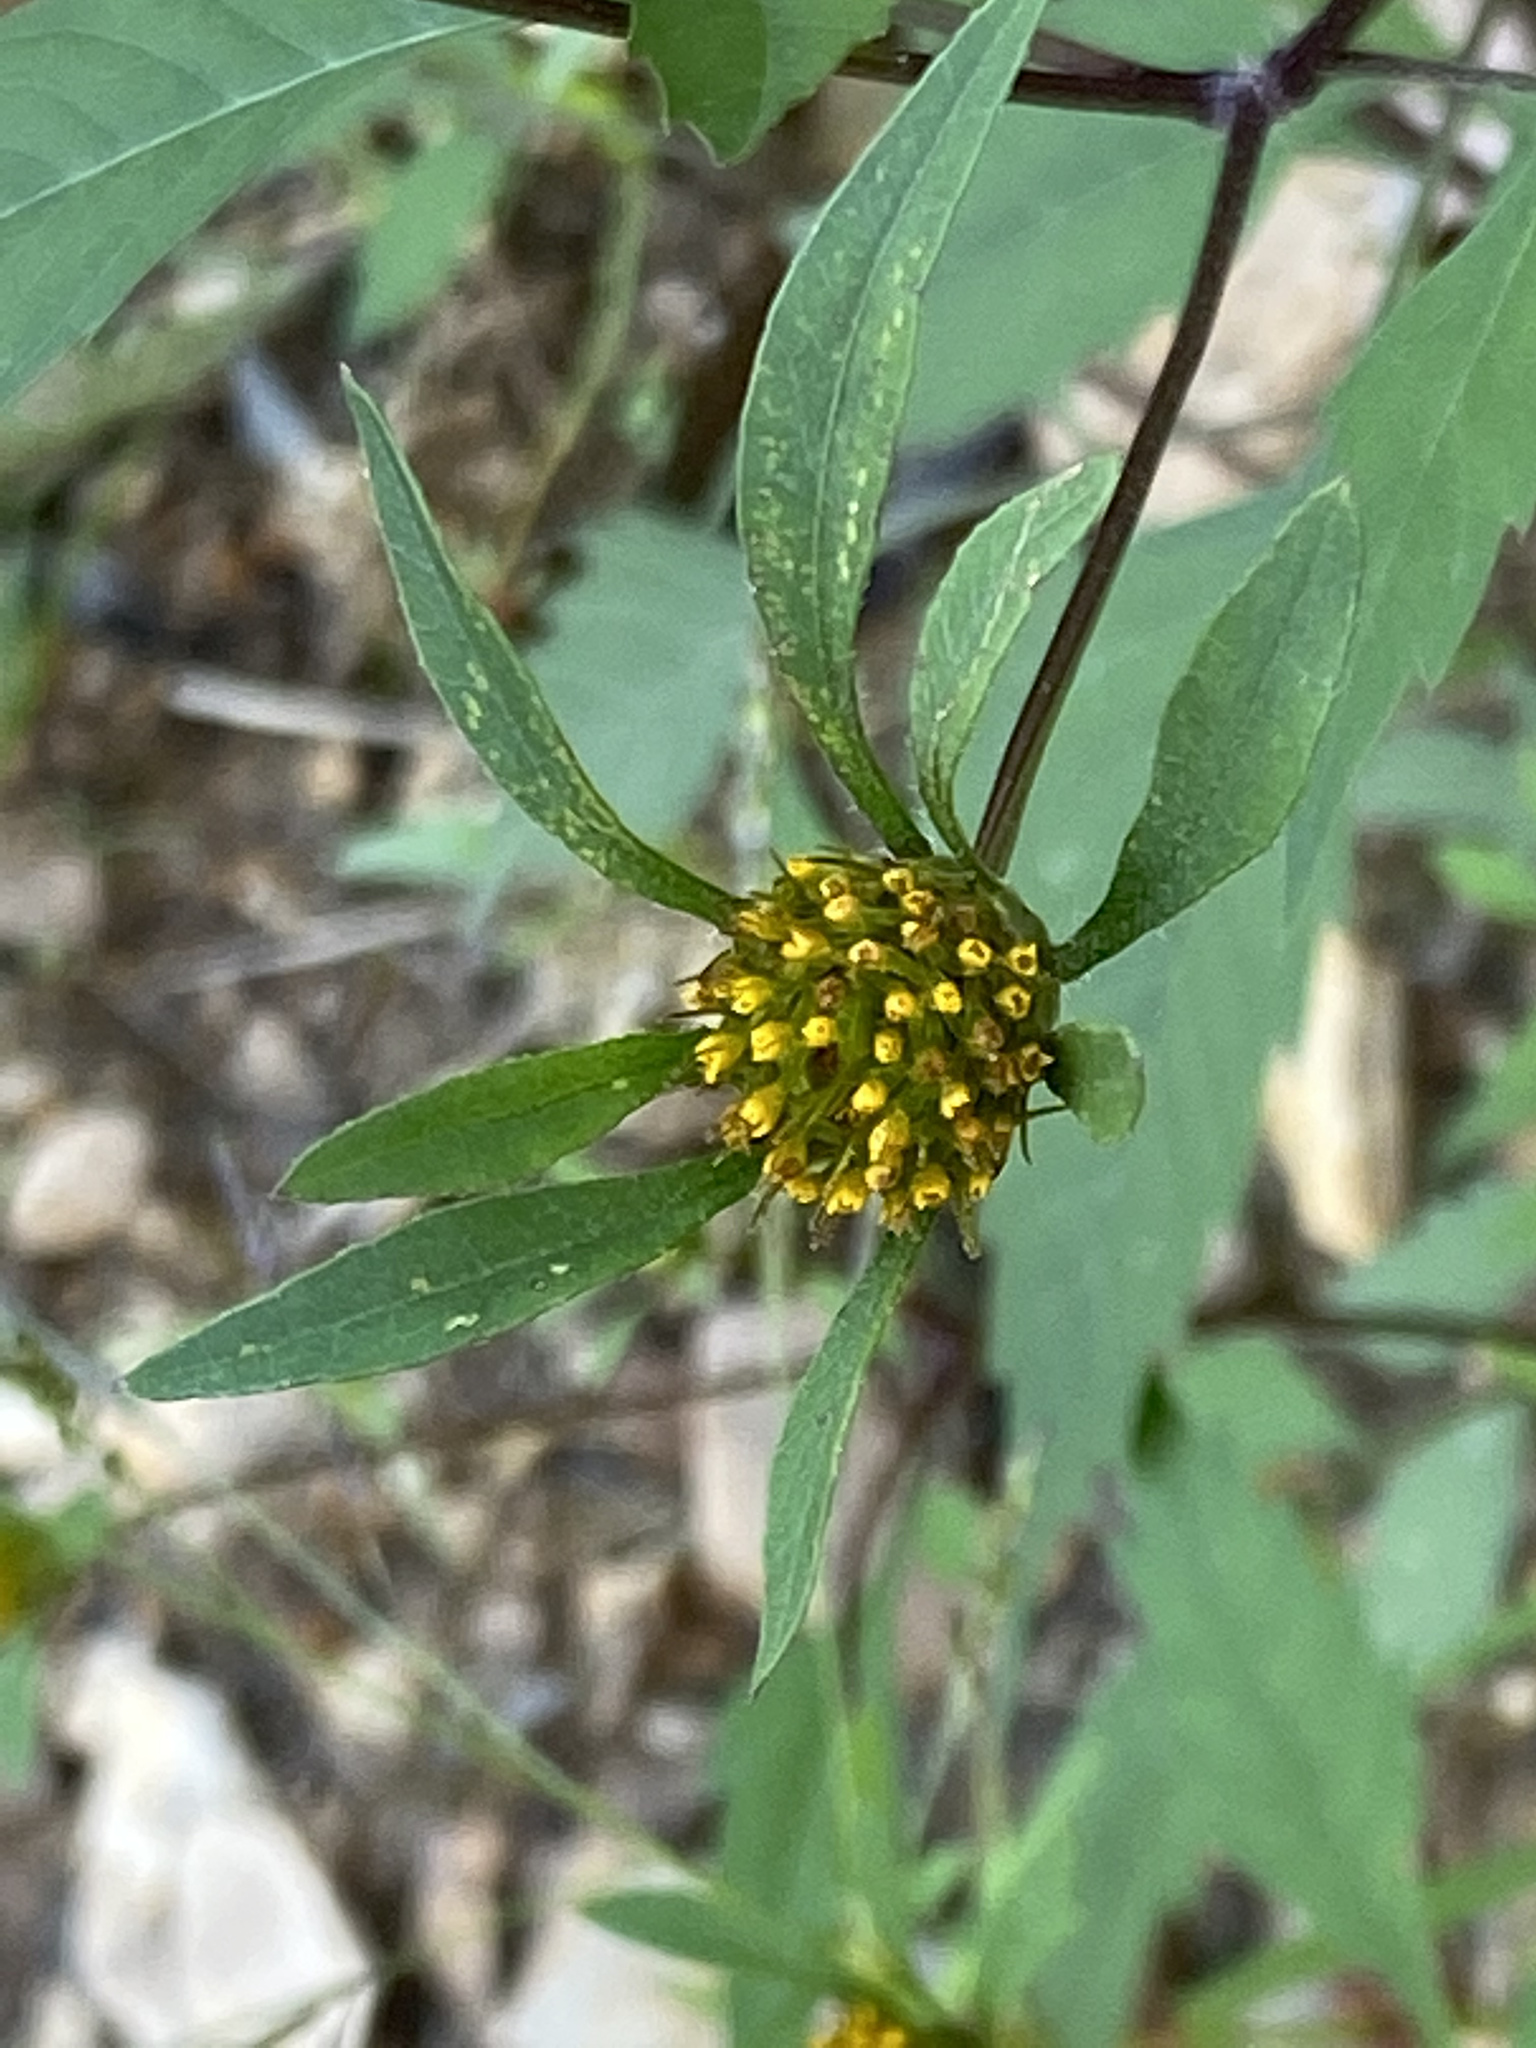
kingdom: Plantae
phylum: Tracheophyta
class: Magnoliopsida
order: Asterales
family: Asteraceae
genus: Bidens
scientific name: Bidens frondosa
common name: Beggarticks
